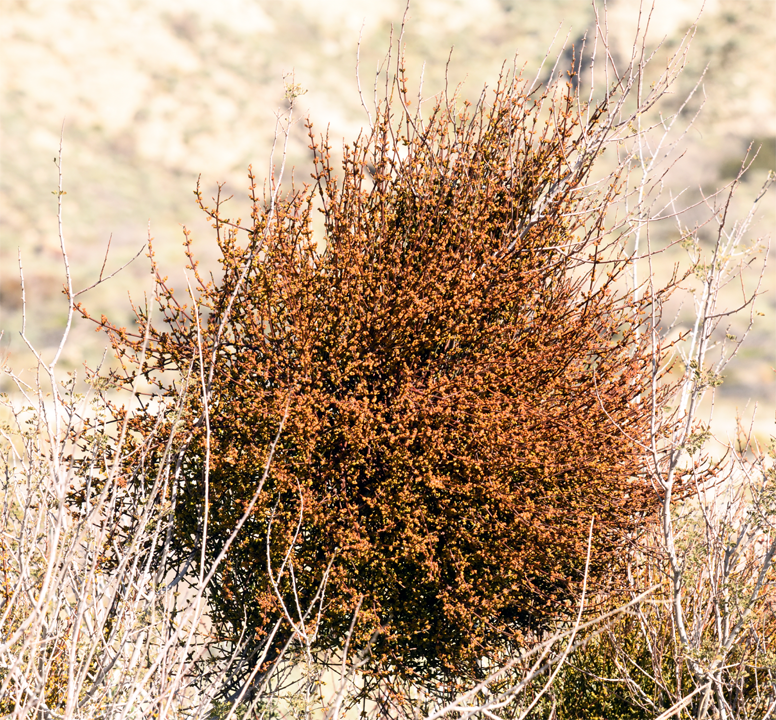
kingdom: Plantae
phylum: Tracheophyta
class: Magnoliopsida
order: Santalales
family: Viscaceae
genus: Phoradendron
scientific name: Phoradendron californicum
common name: Acacia mistletoe
